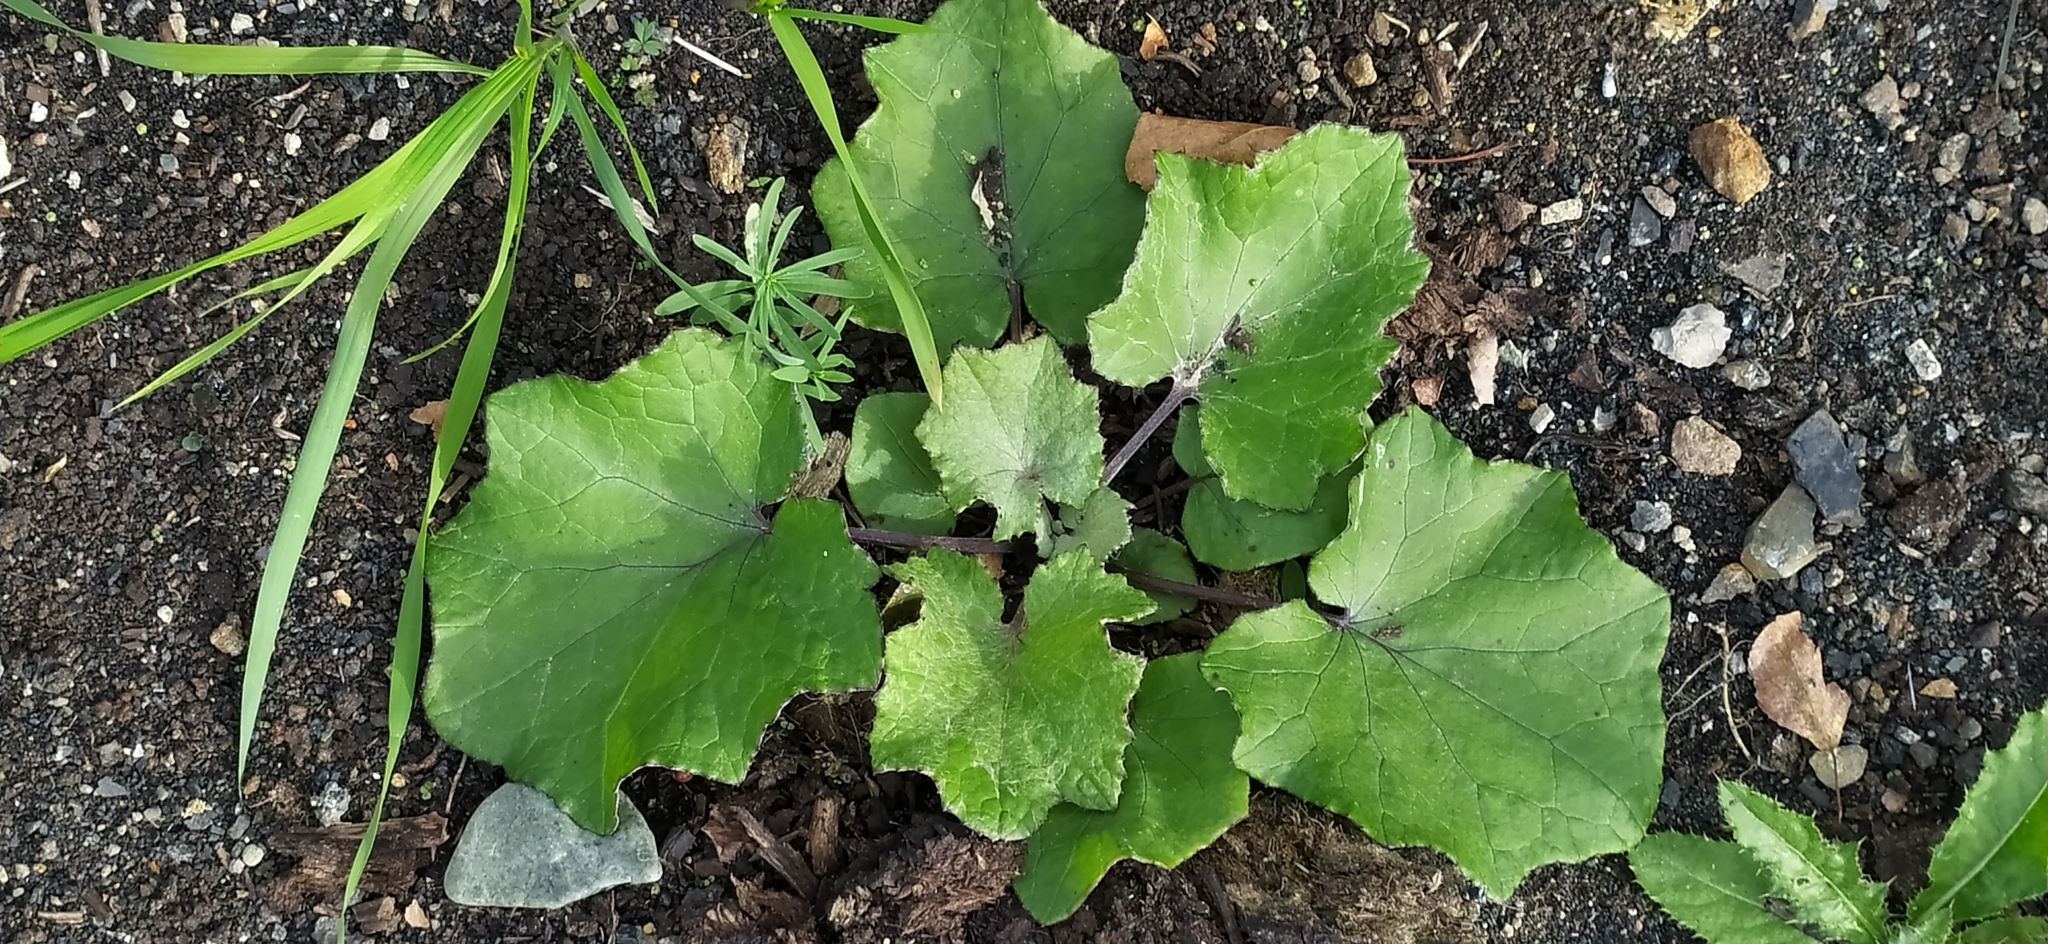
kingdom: Plantae
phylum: Tracheophyta
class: Magnoliopsida
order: Asterales
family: Asteraceae
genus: Tussilago
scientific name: Tussilago farfara
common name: Coltsfoot
